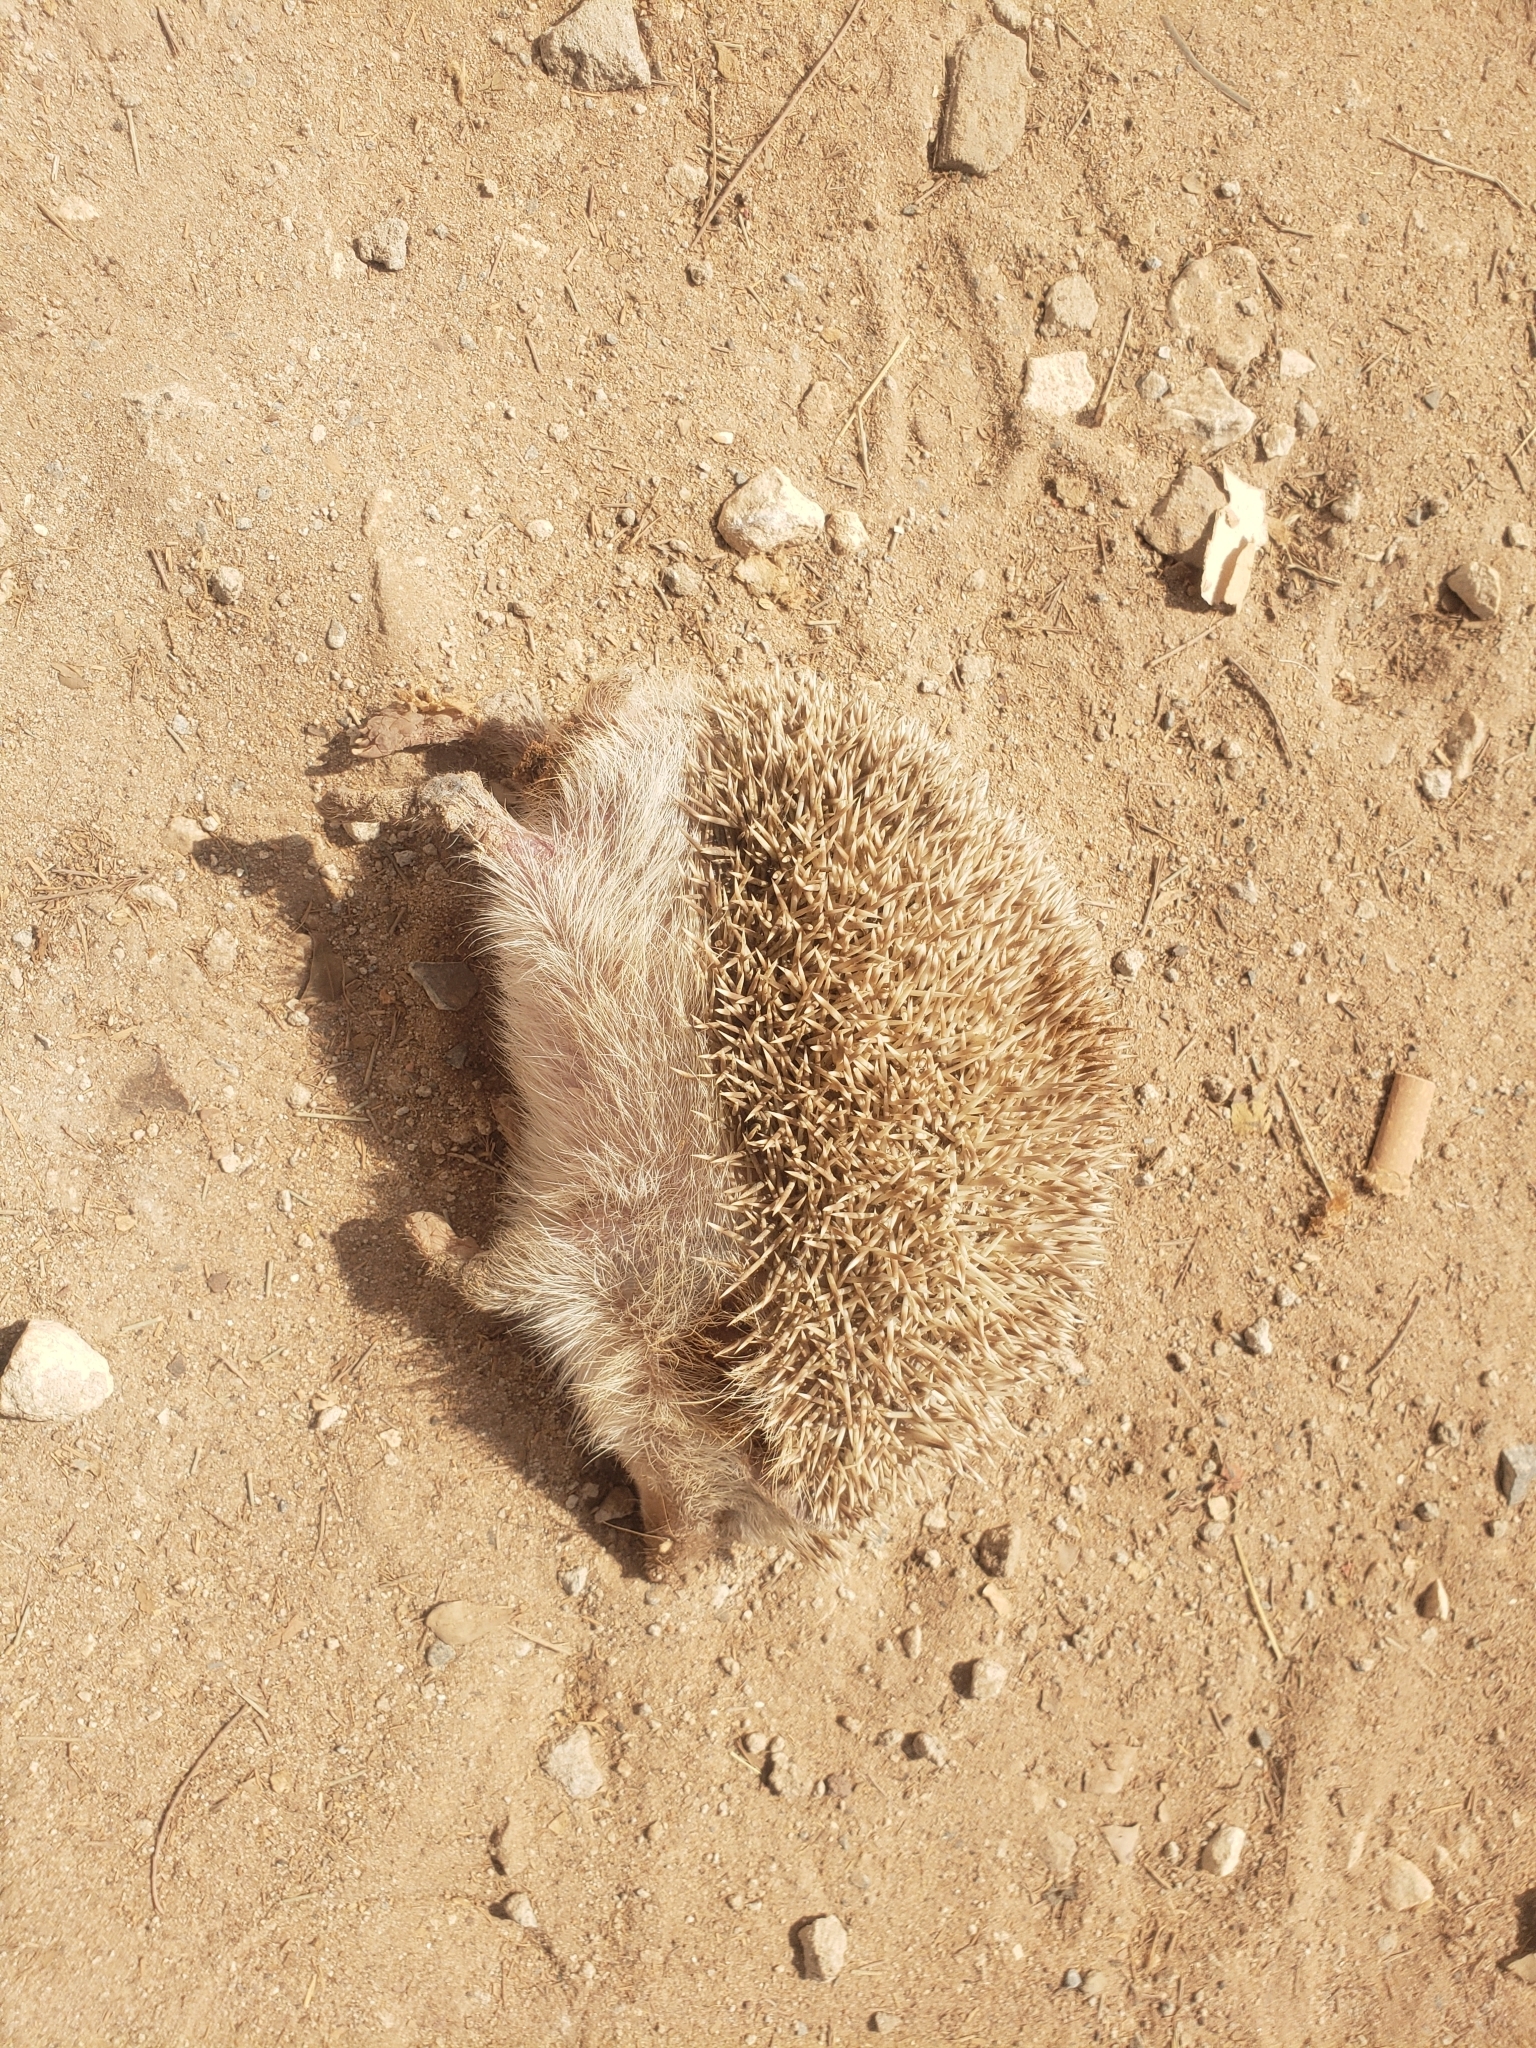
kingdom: Animalia
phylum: Chordata
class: Mammalia
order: Erinaceomorpha
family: Erinaceidae
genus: Atelerix
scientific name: Atelerix albiventris
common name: Four-toed hedgehog
